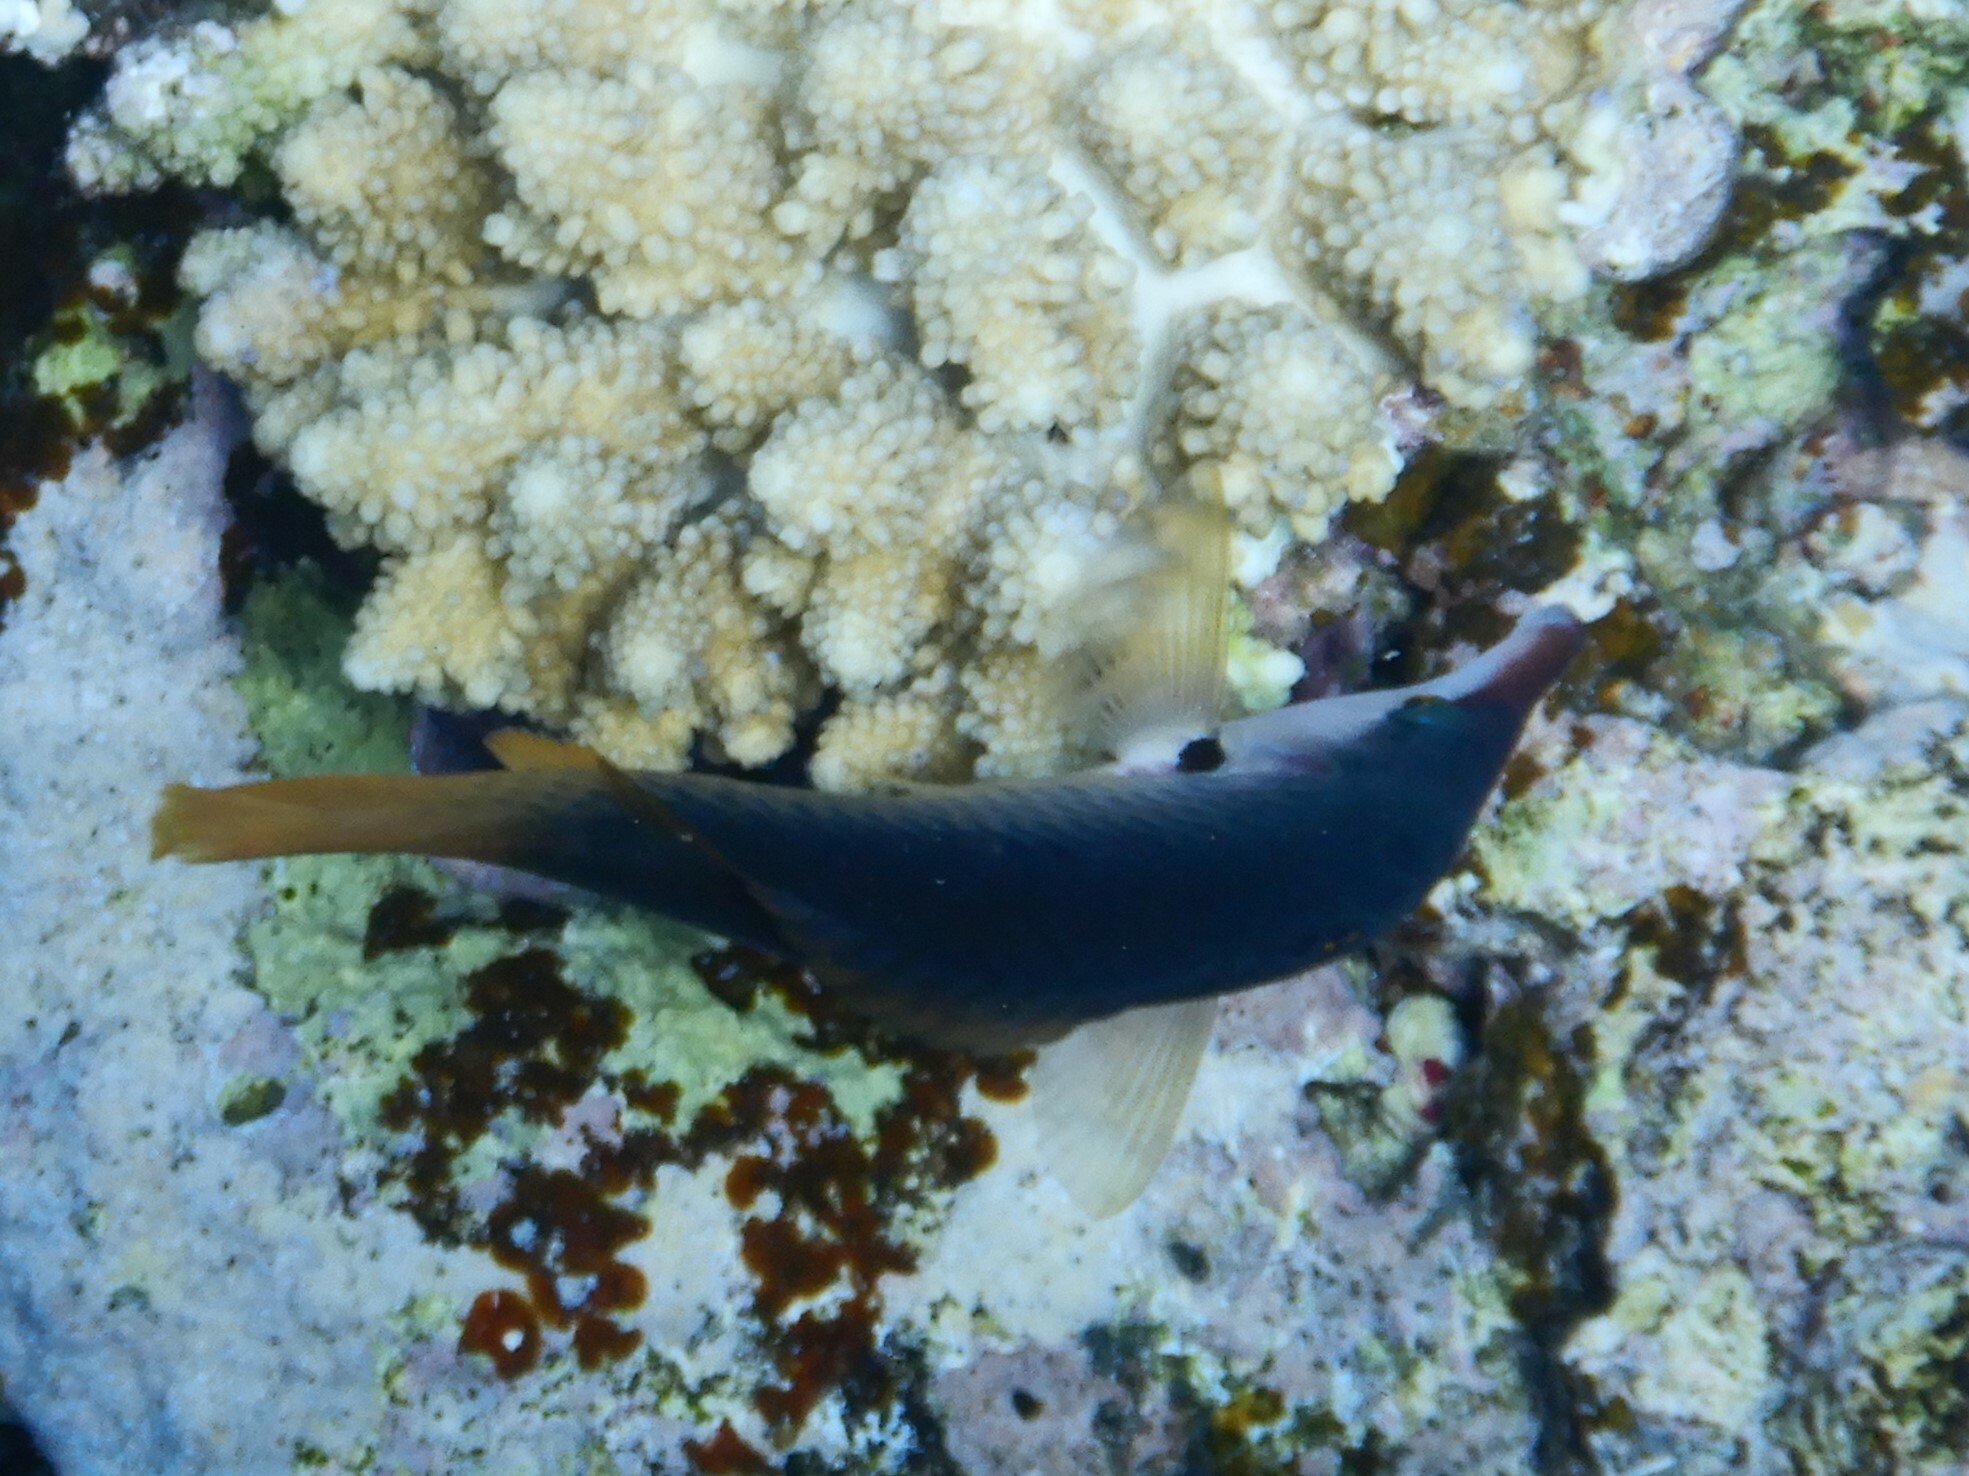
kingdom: Animalia
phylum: Chordata
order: Perciformes
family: Labridae
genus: Gomphosus
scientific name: Gomphosus klunzingeri
